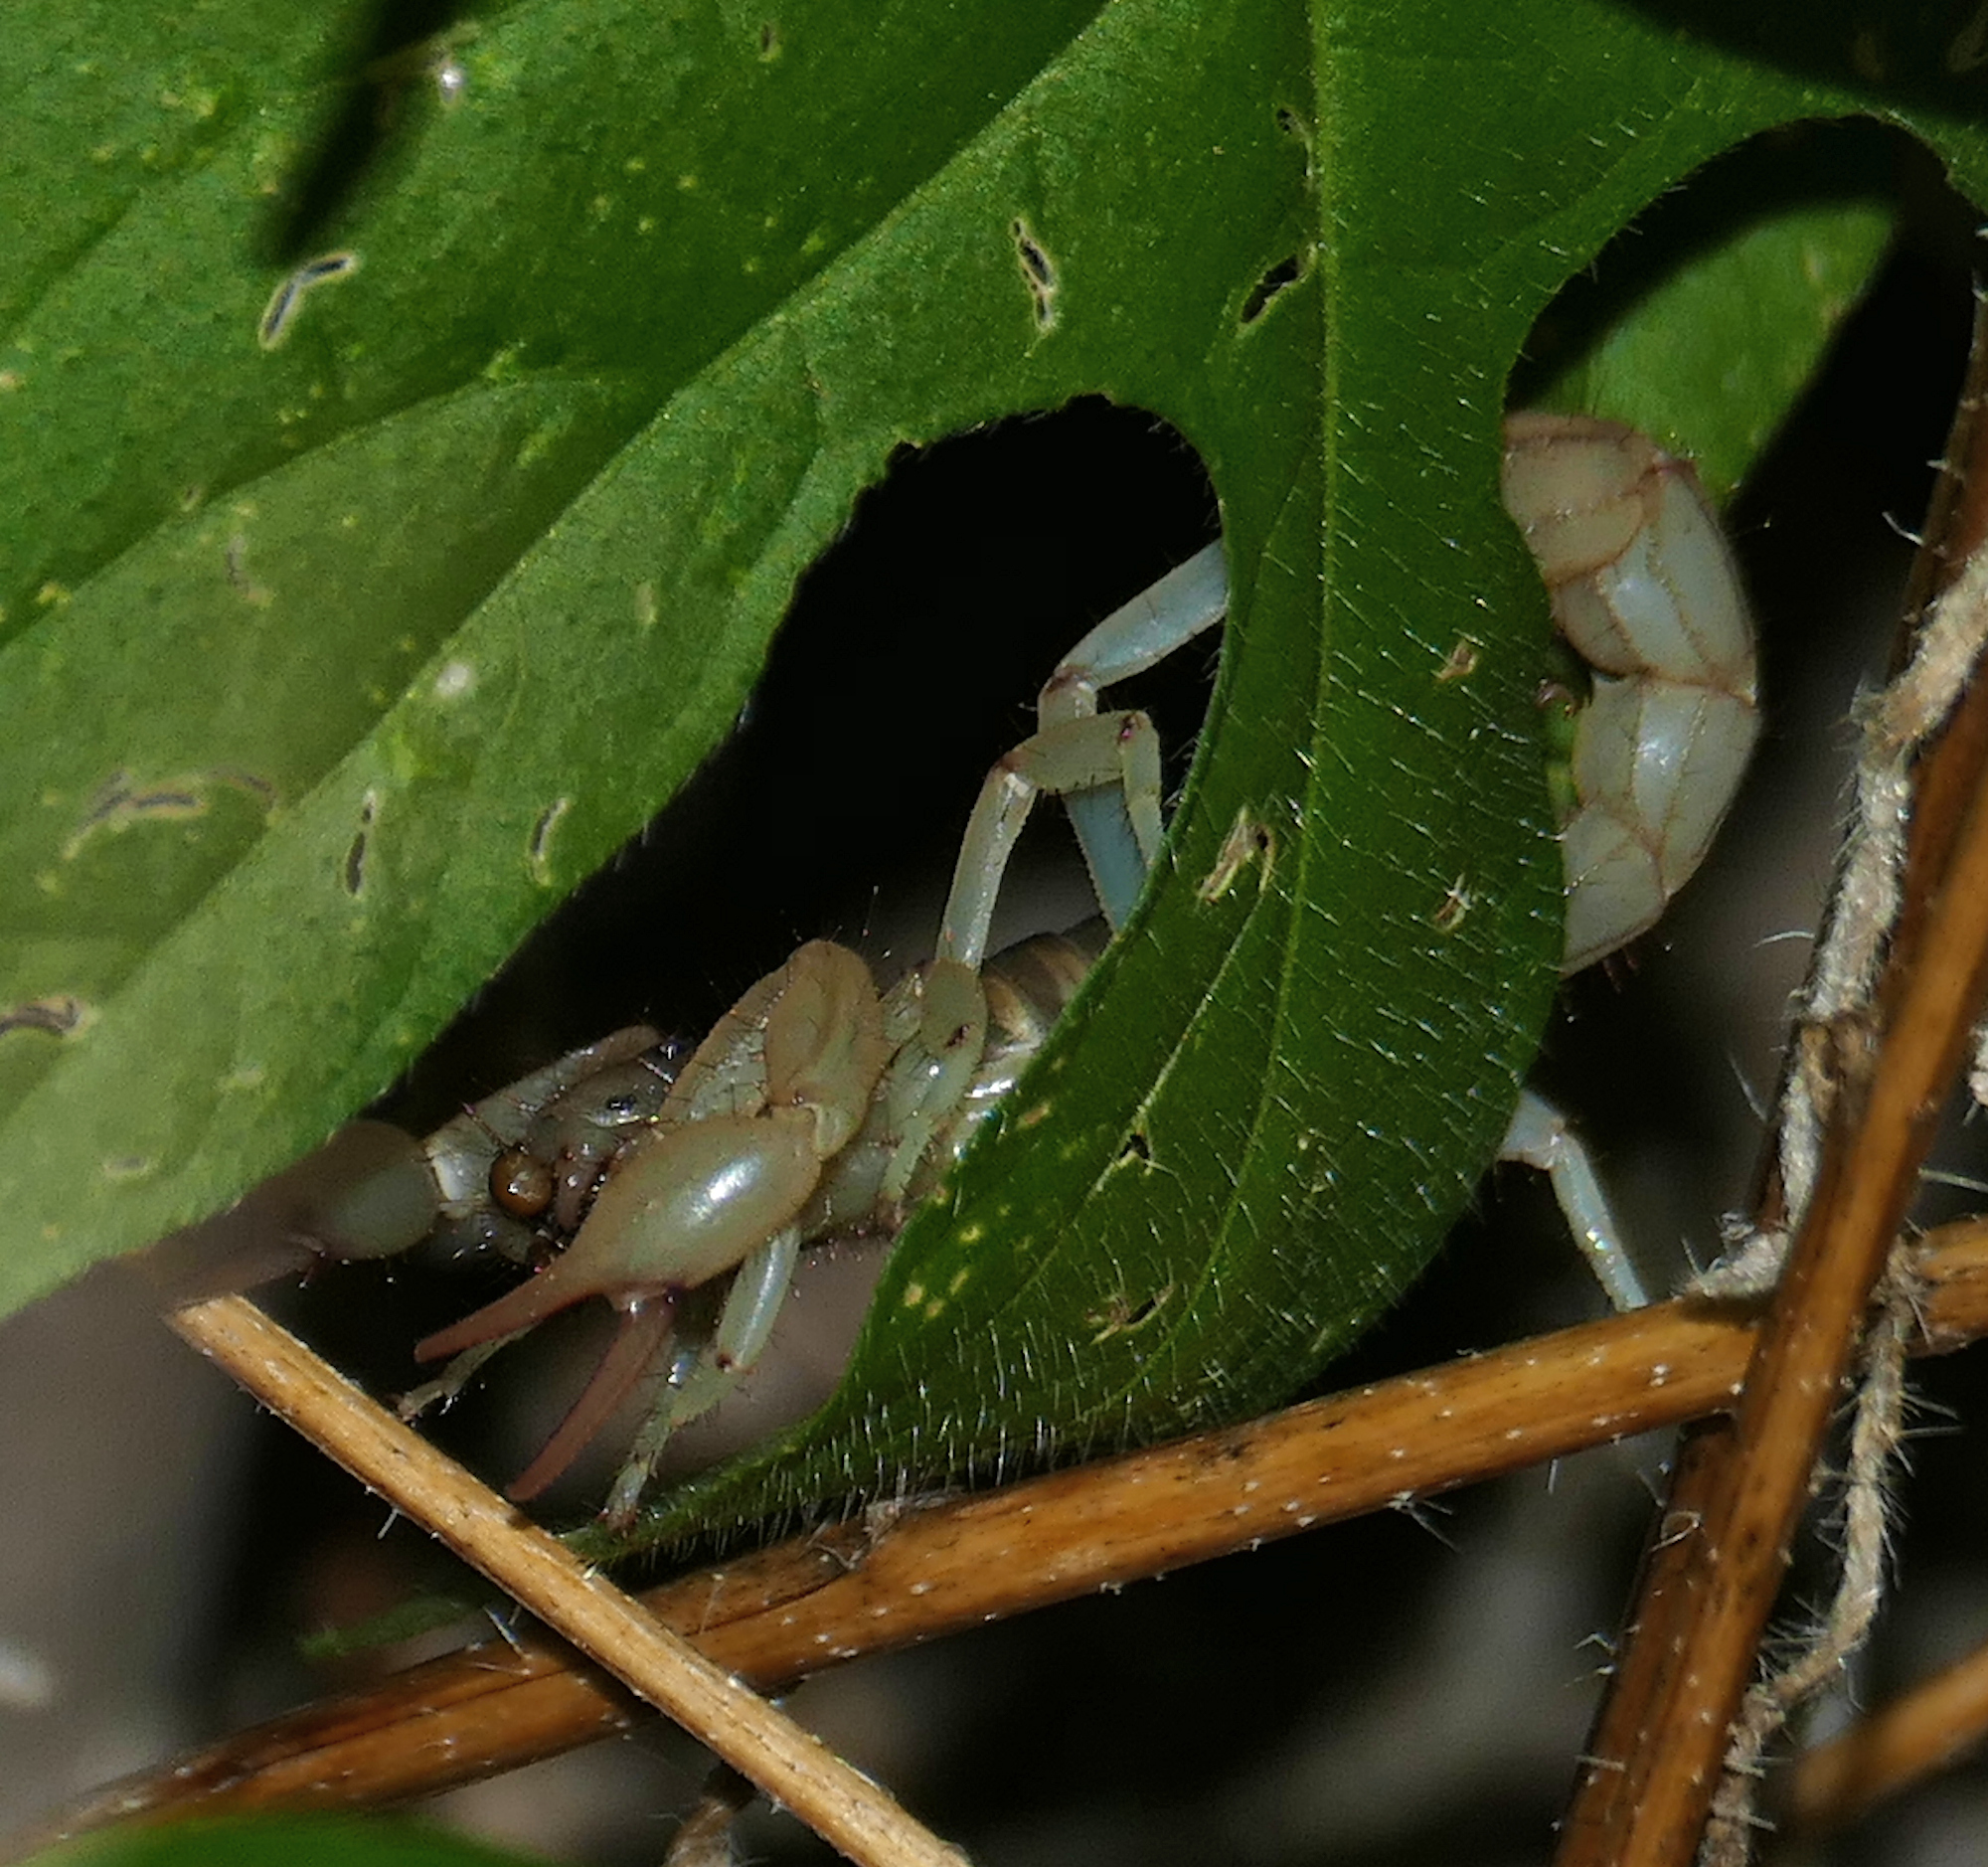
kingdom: Animalia
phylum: Arthropoda
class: Arachnida
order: Scorpiones
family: Vaejovidae
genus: Paravaejovis
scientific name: Paravaejovis spinigerus
